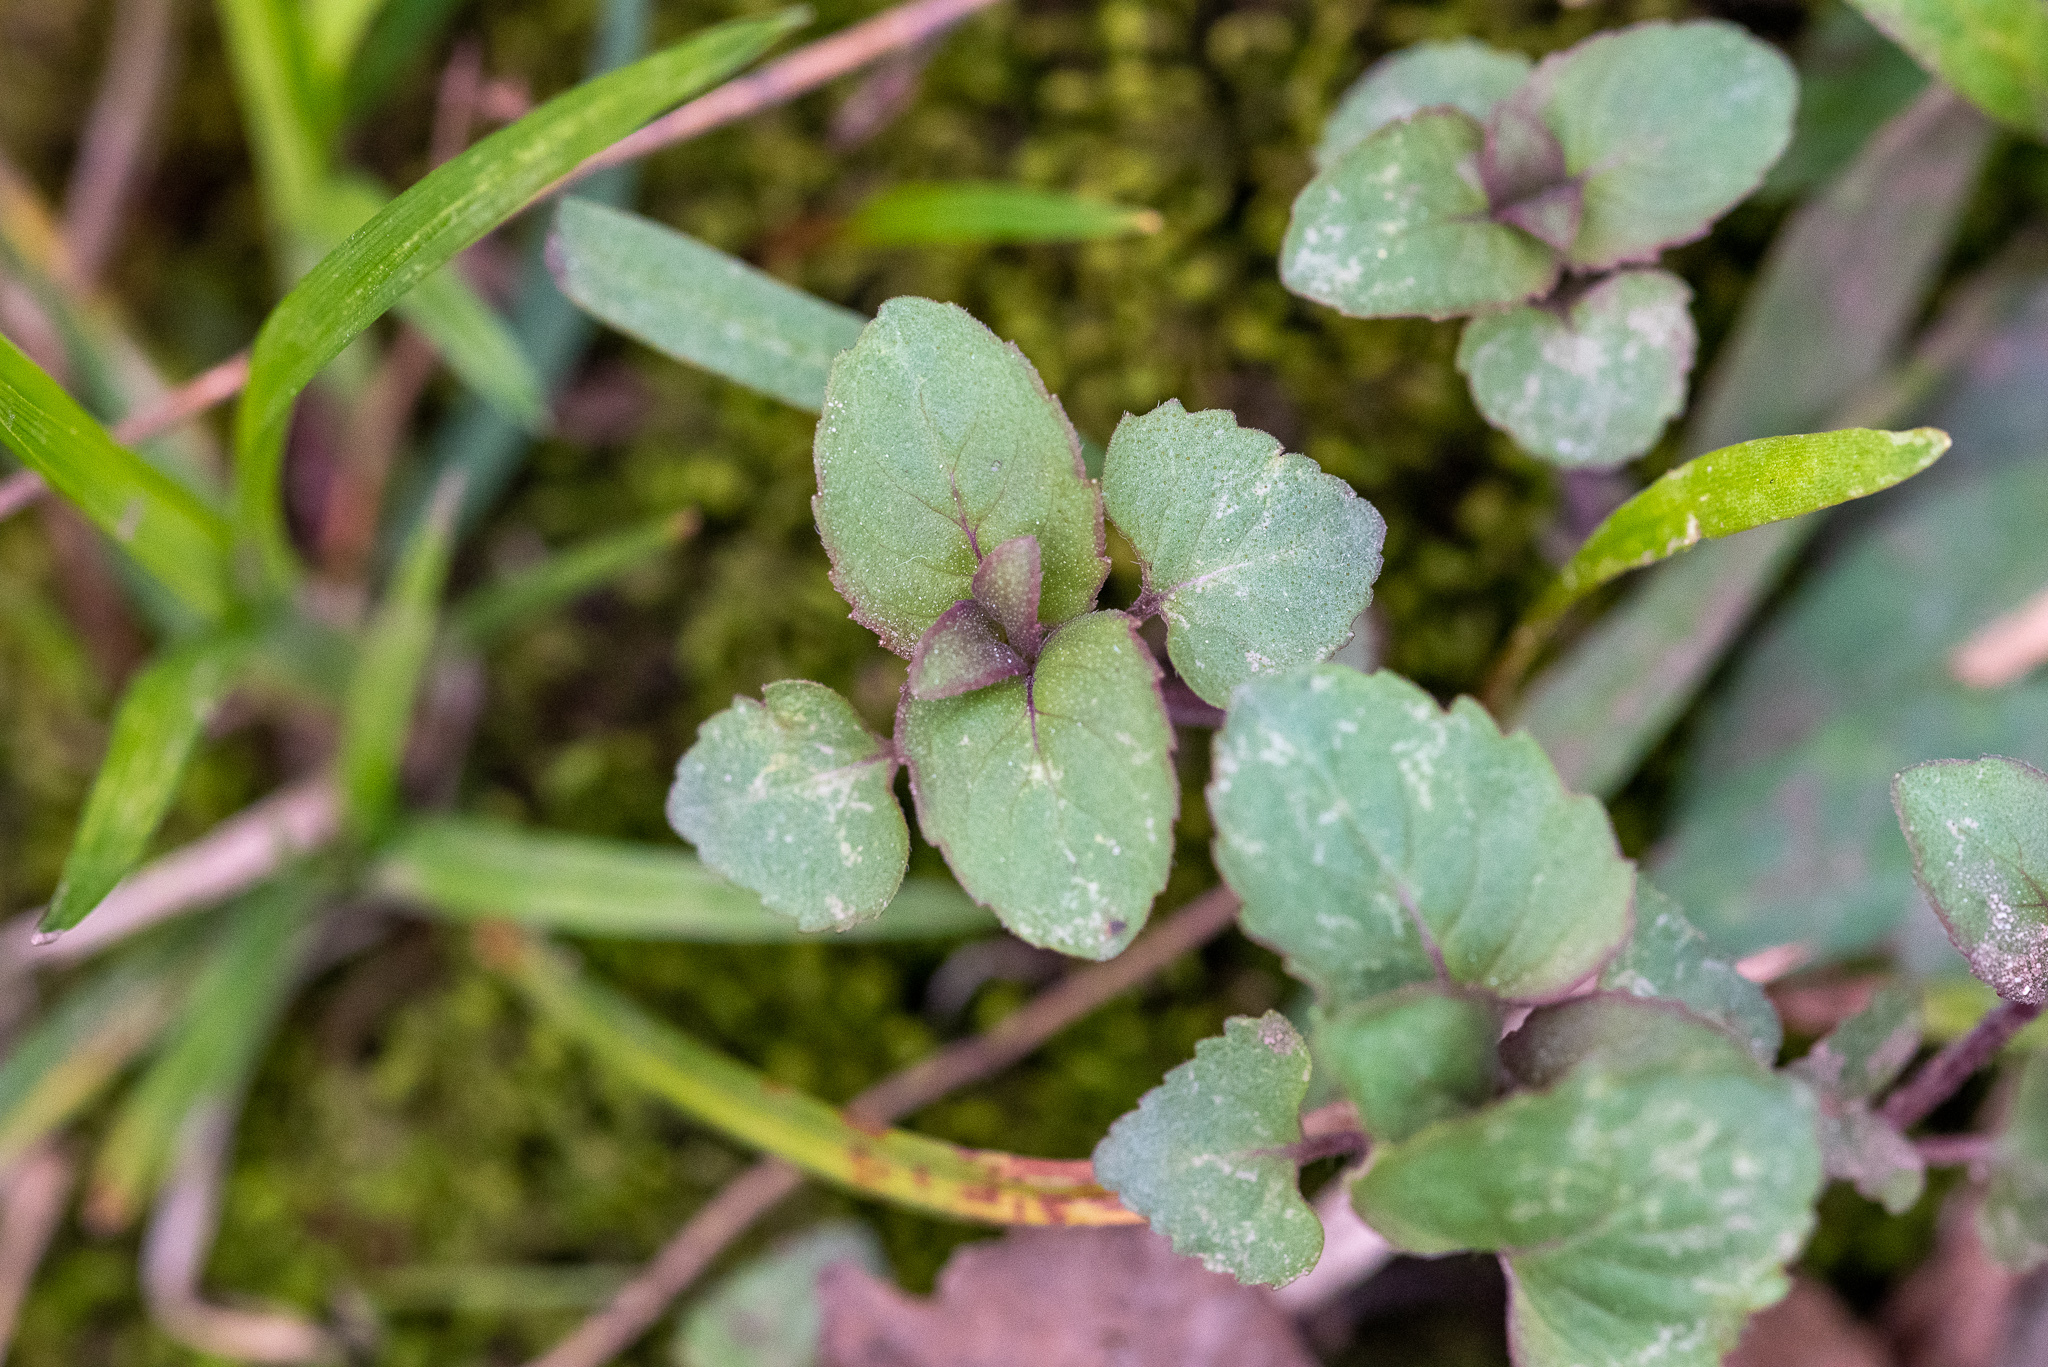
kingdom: Plantae
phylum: Tracheophyta
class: Magnoliopsida
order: Lamiales
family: Lamiaceae
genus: Monarda
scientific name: Monarda fistulosa
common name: Purple beebalm
